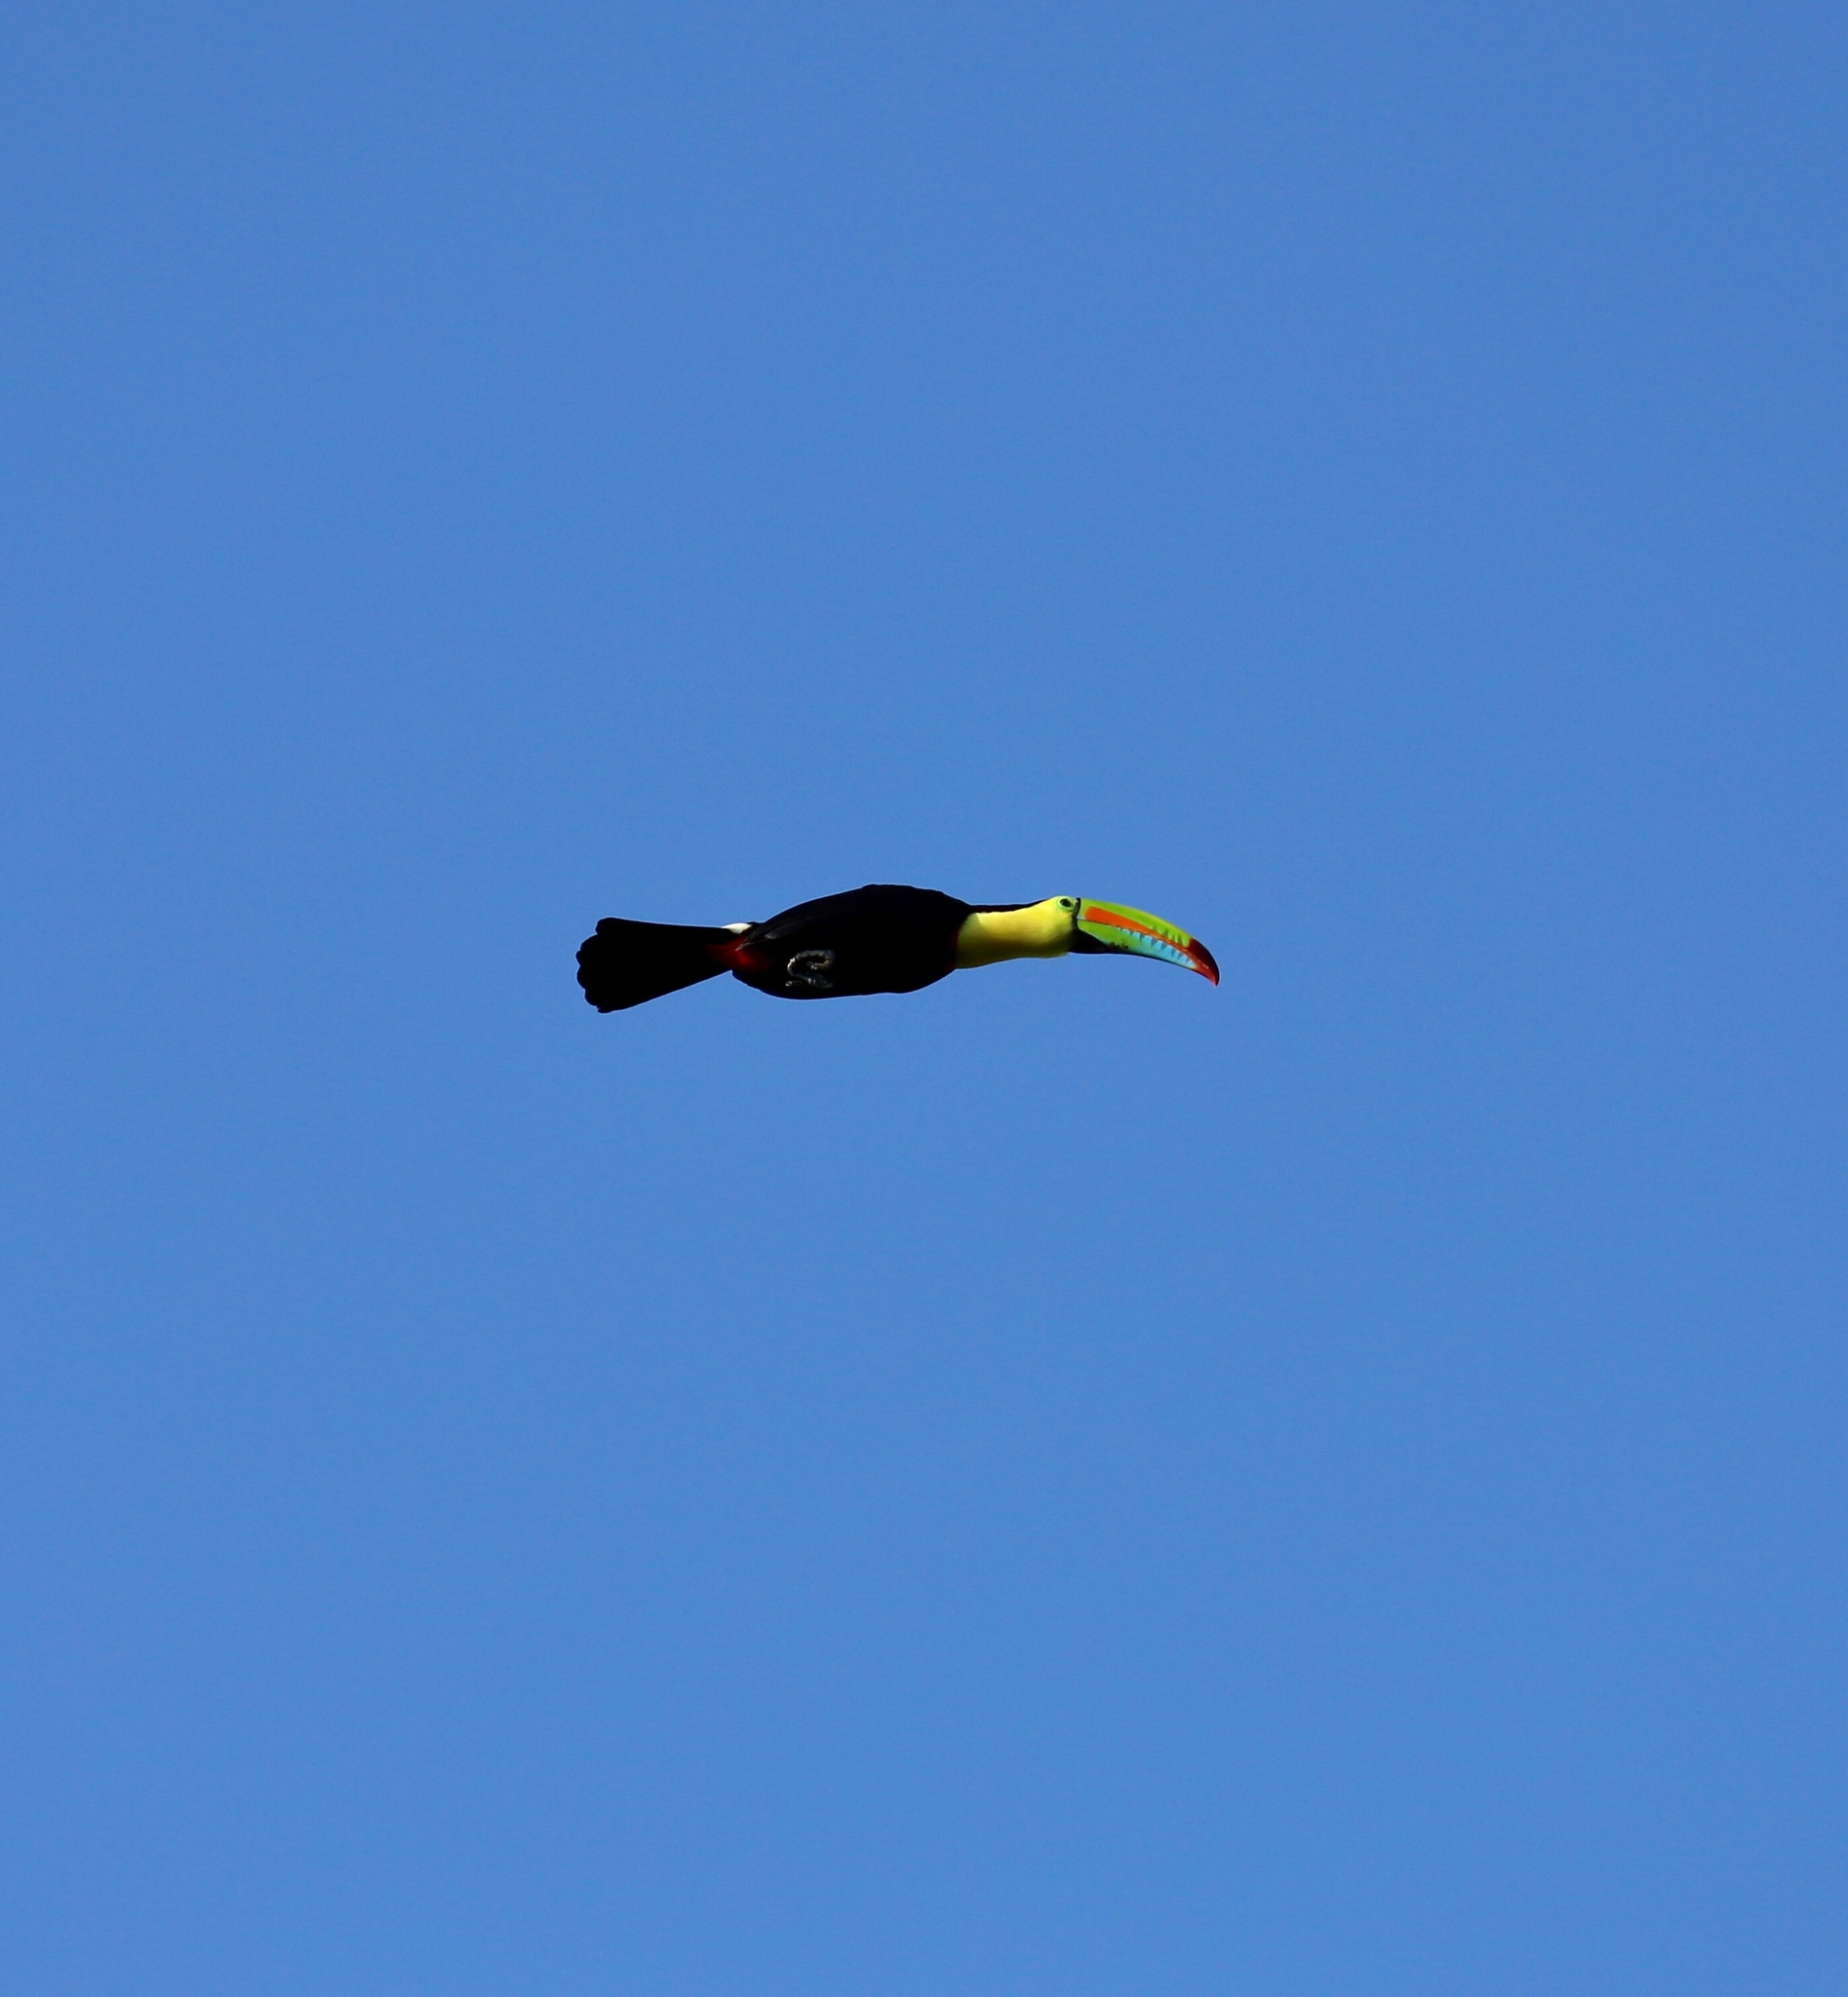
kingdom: Animalia
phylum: Chordata
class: Aves
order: Piciformes
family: Ramphastidae
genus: Ramphastos
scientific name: Ramphastos sulfuratus
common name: Keel-billed toucan
